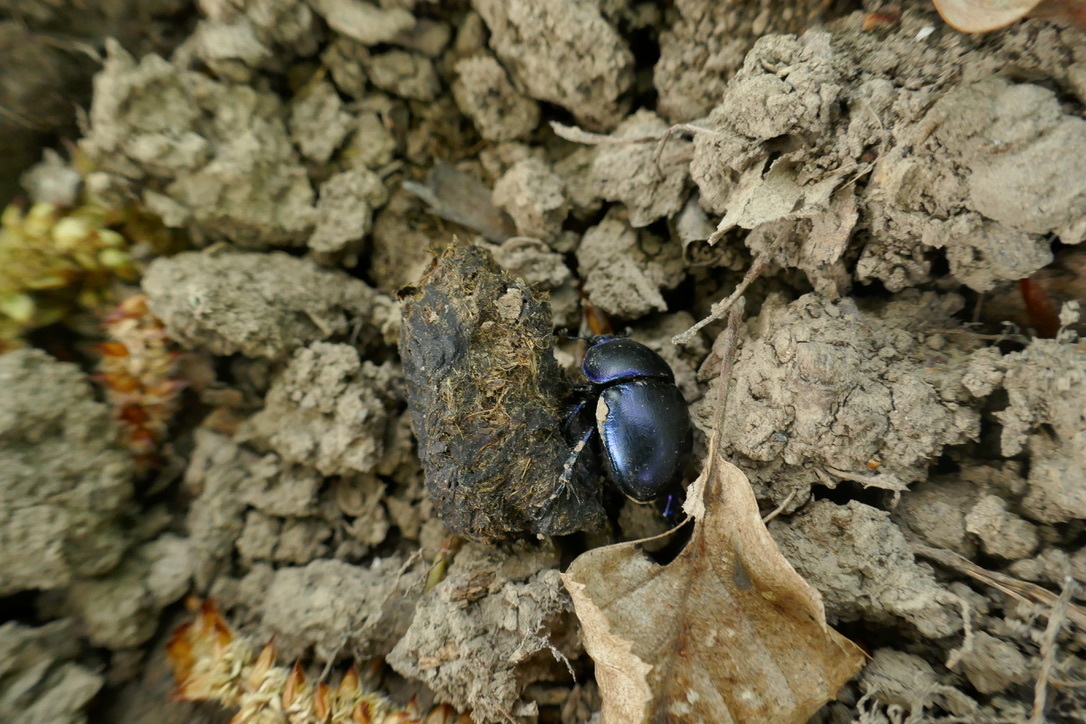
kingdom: Animalia
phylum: Arthropoda
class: Insecta
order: Coleoptera
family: Geotrupidae
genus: Trypocopris
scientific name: Trypocopris vernalis
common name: Spring dumbledor
